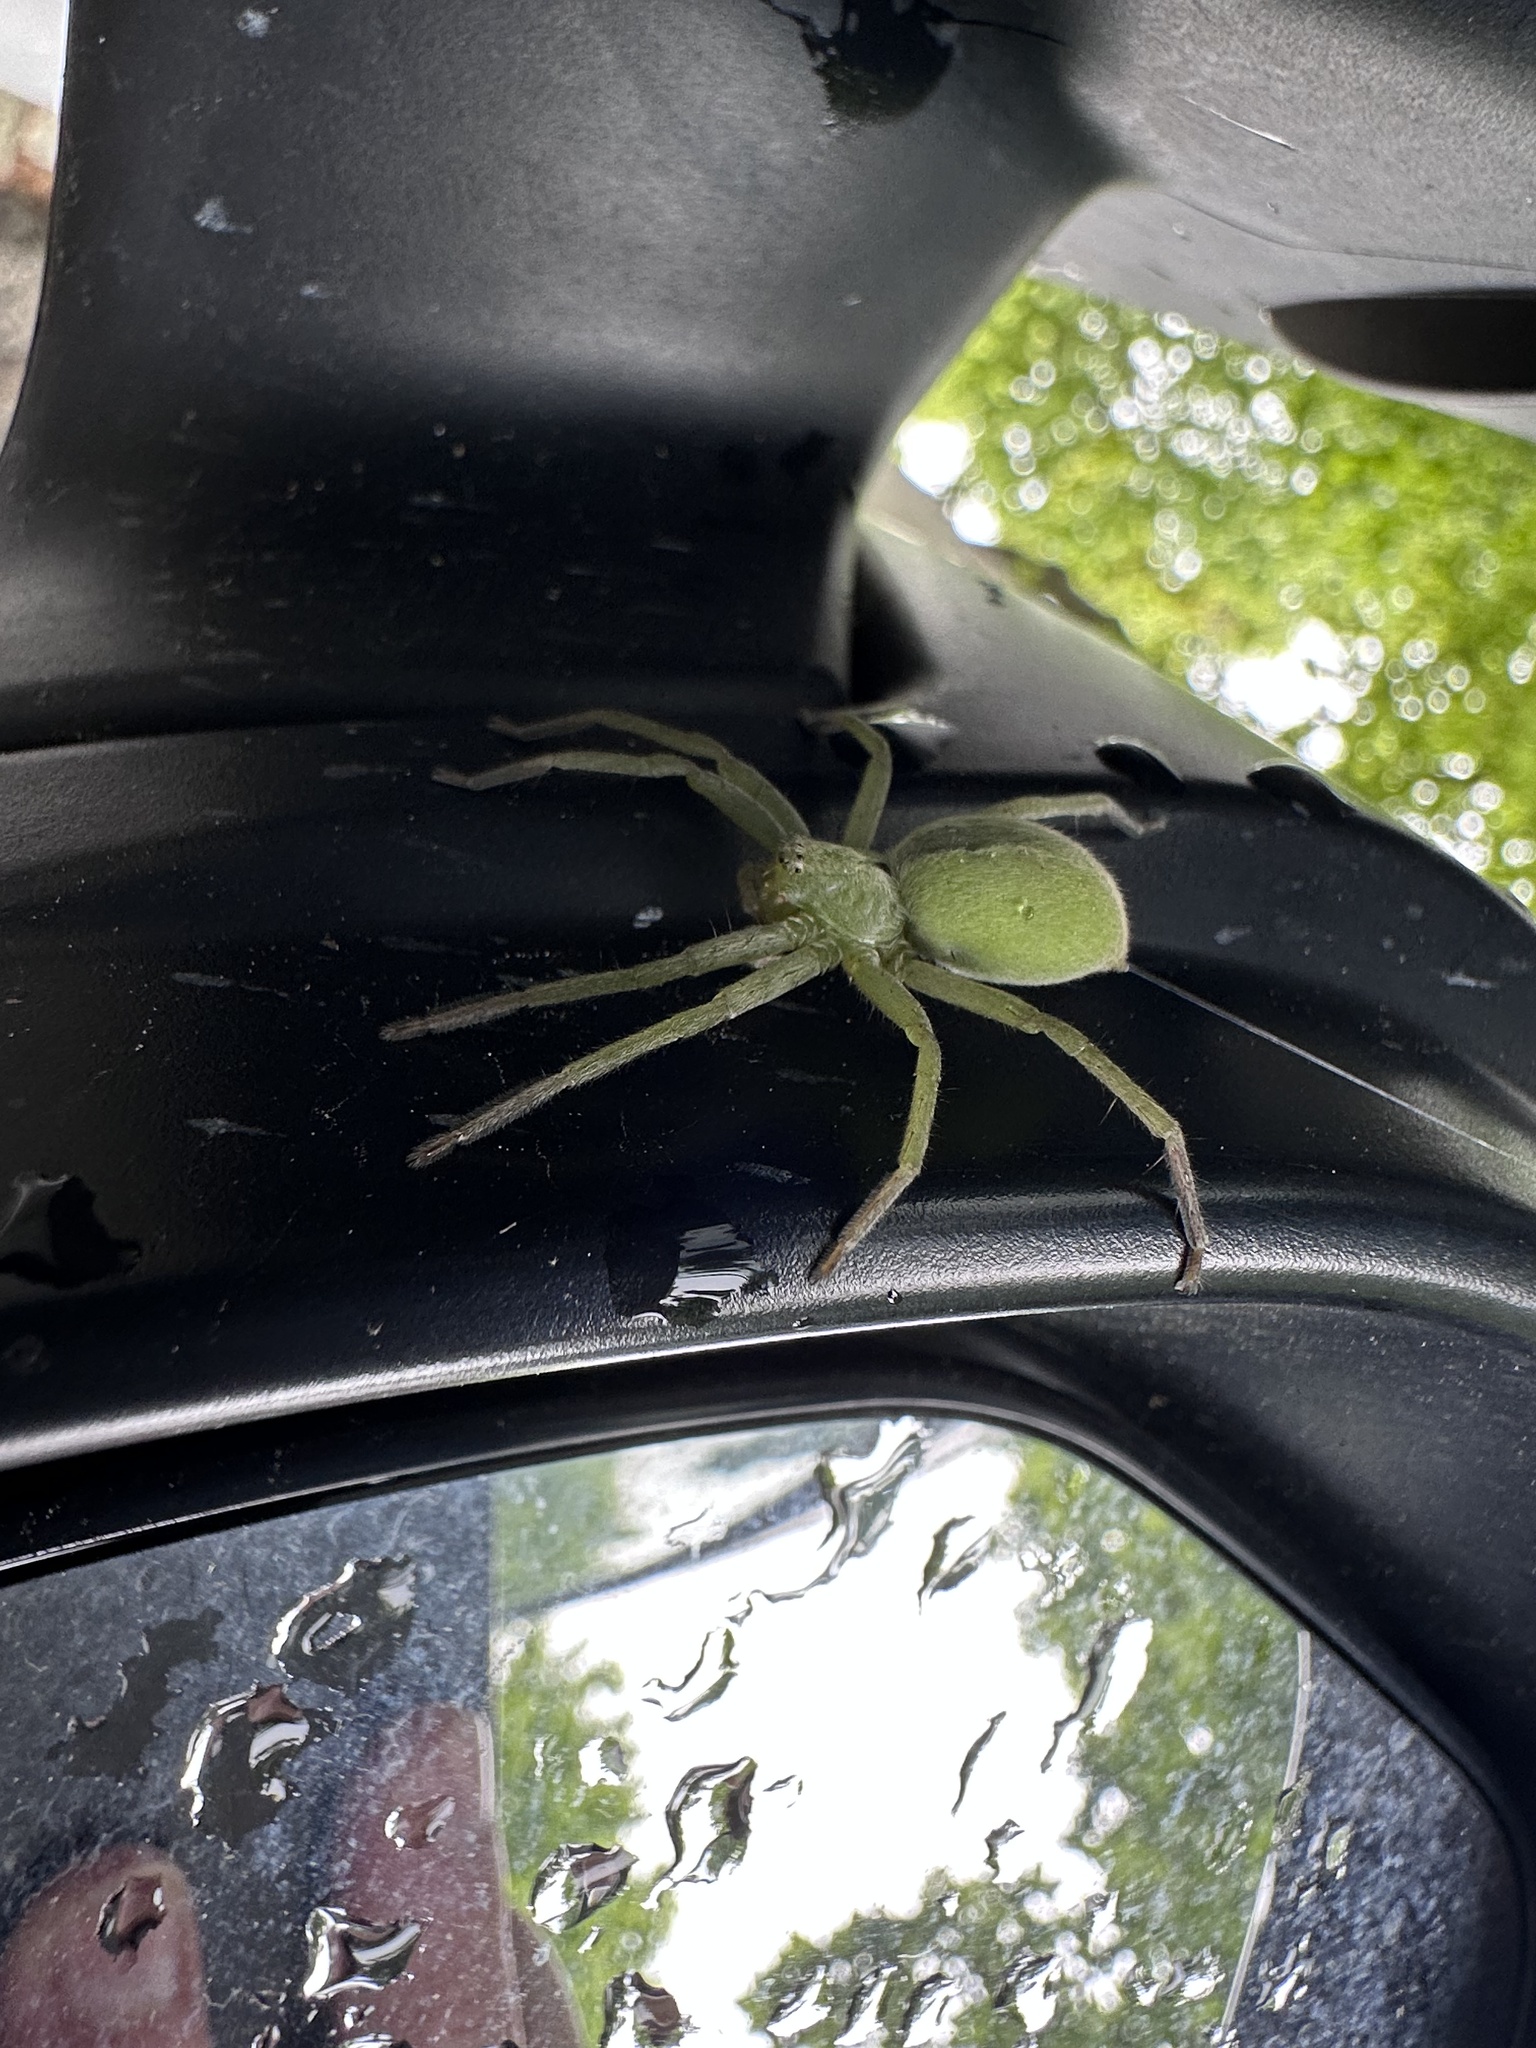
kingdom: Animalia
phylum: Arthropoda
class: Arachnida
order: Araneae
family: Sparassidae
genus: Micrommata
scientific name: Micrommata ligurina
